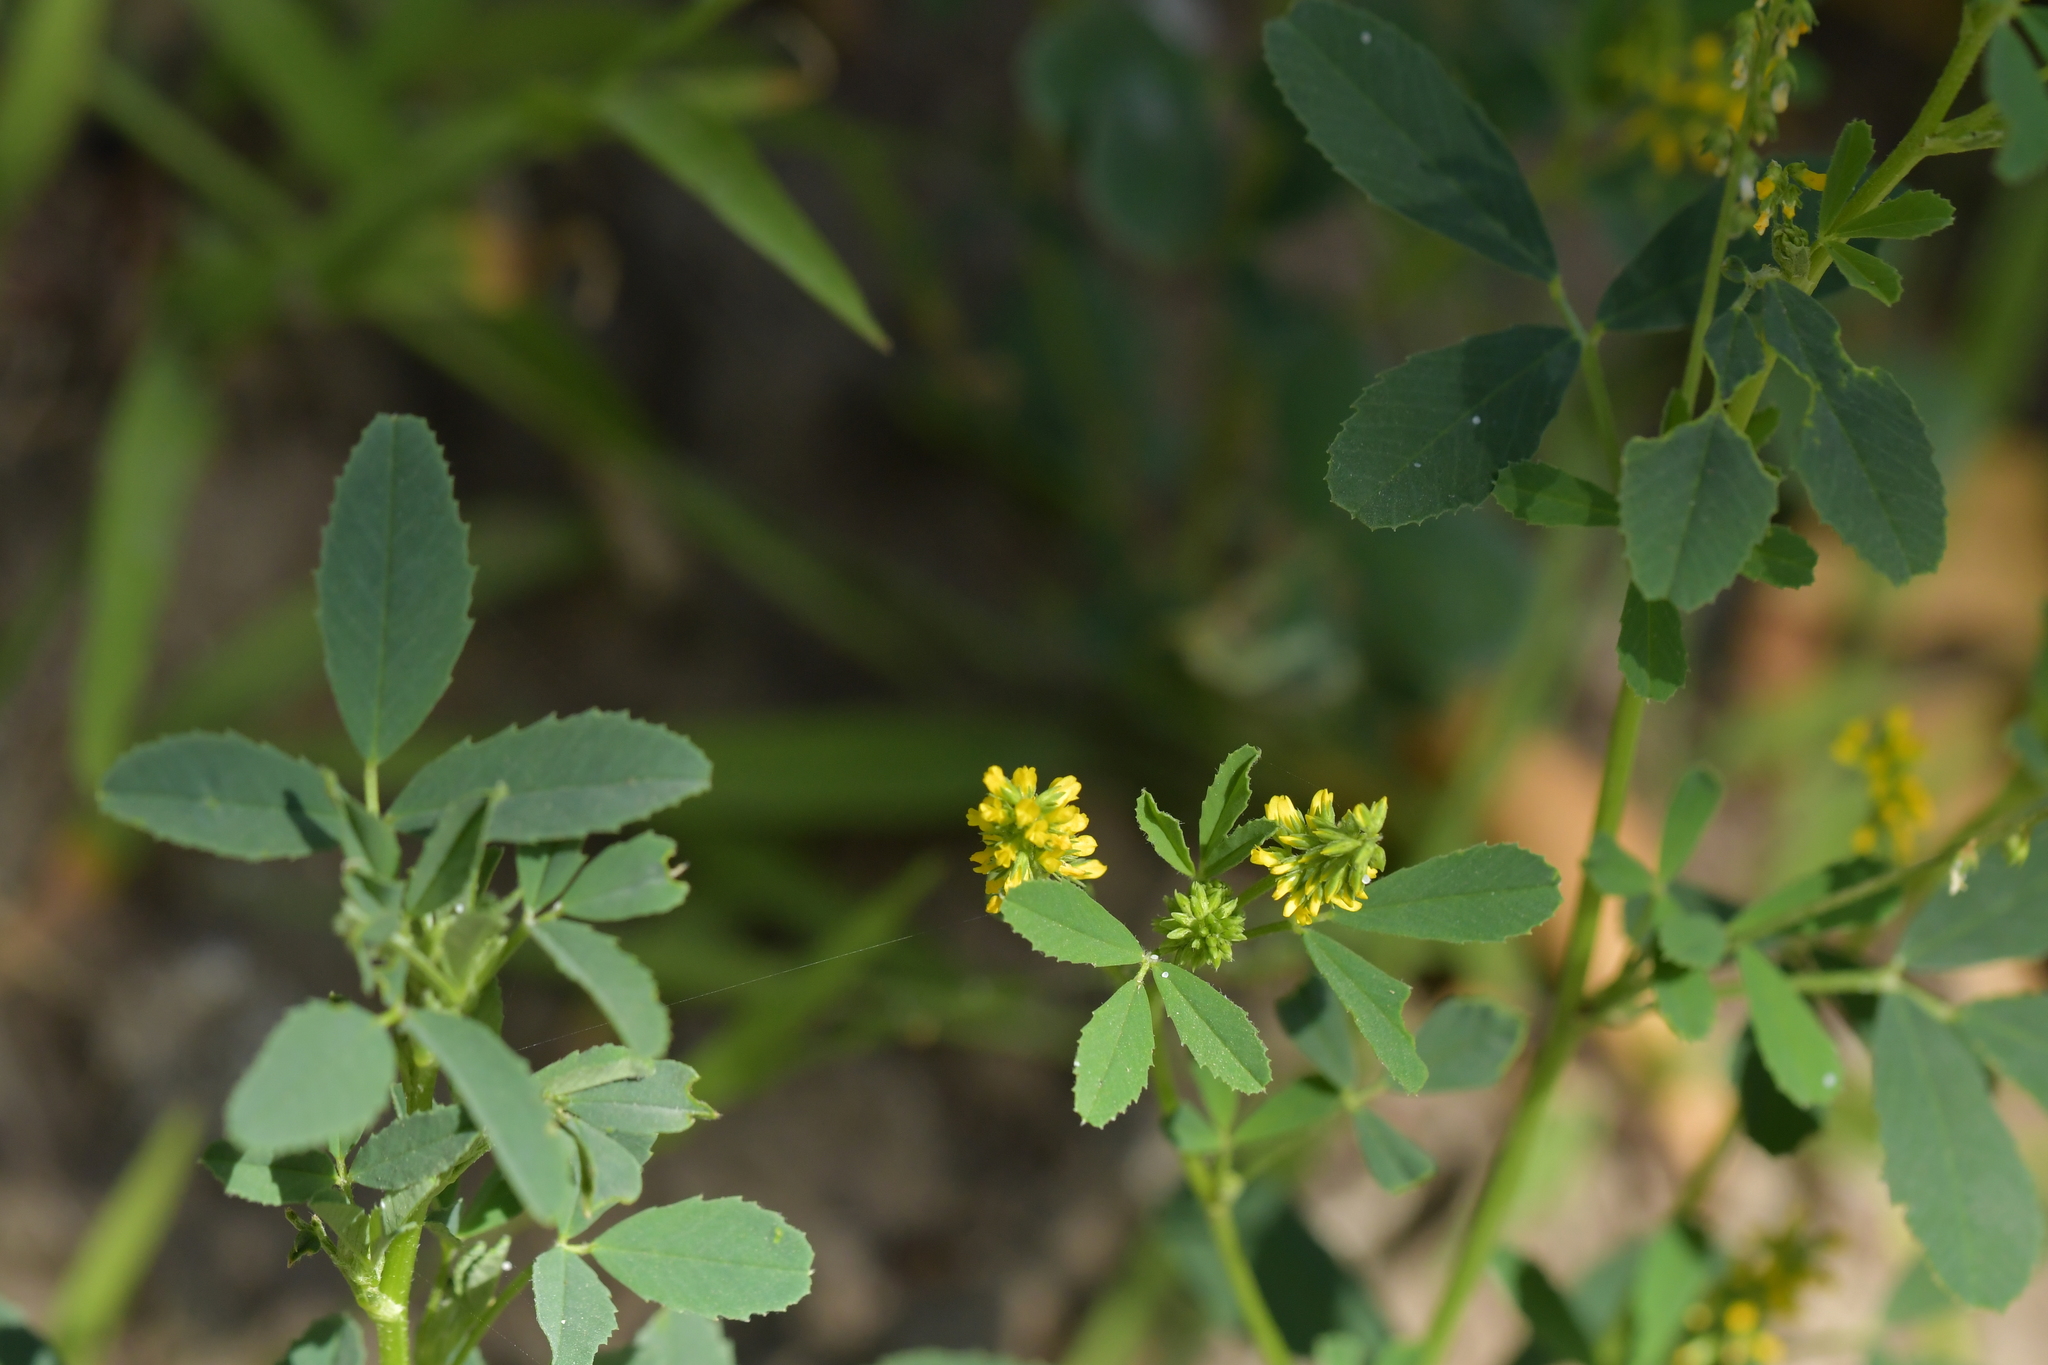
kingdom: Plantae
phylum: Tracheophyta
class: Magnoliopsida
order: Fabales
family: Fabaceae
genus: Melilotus
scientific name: Melilotus indicus
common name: Small melilot
